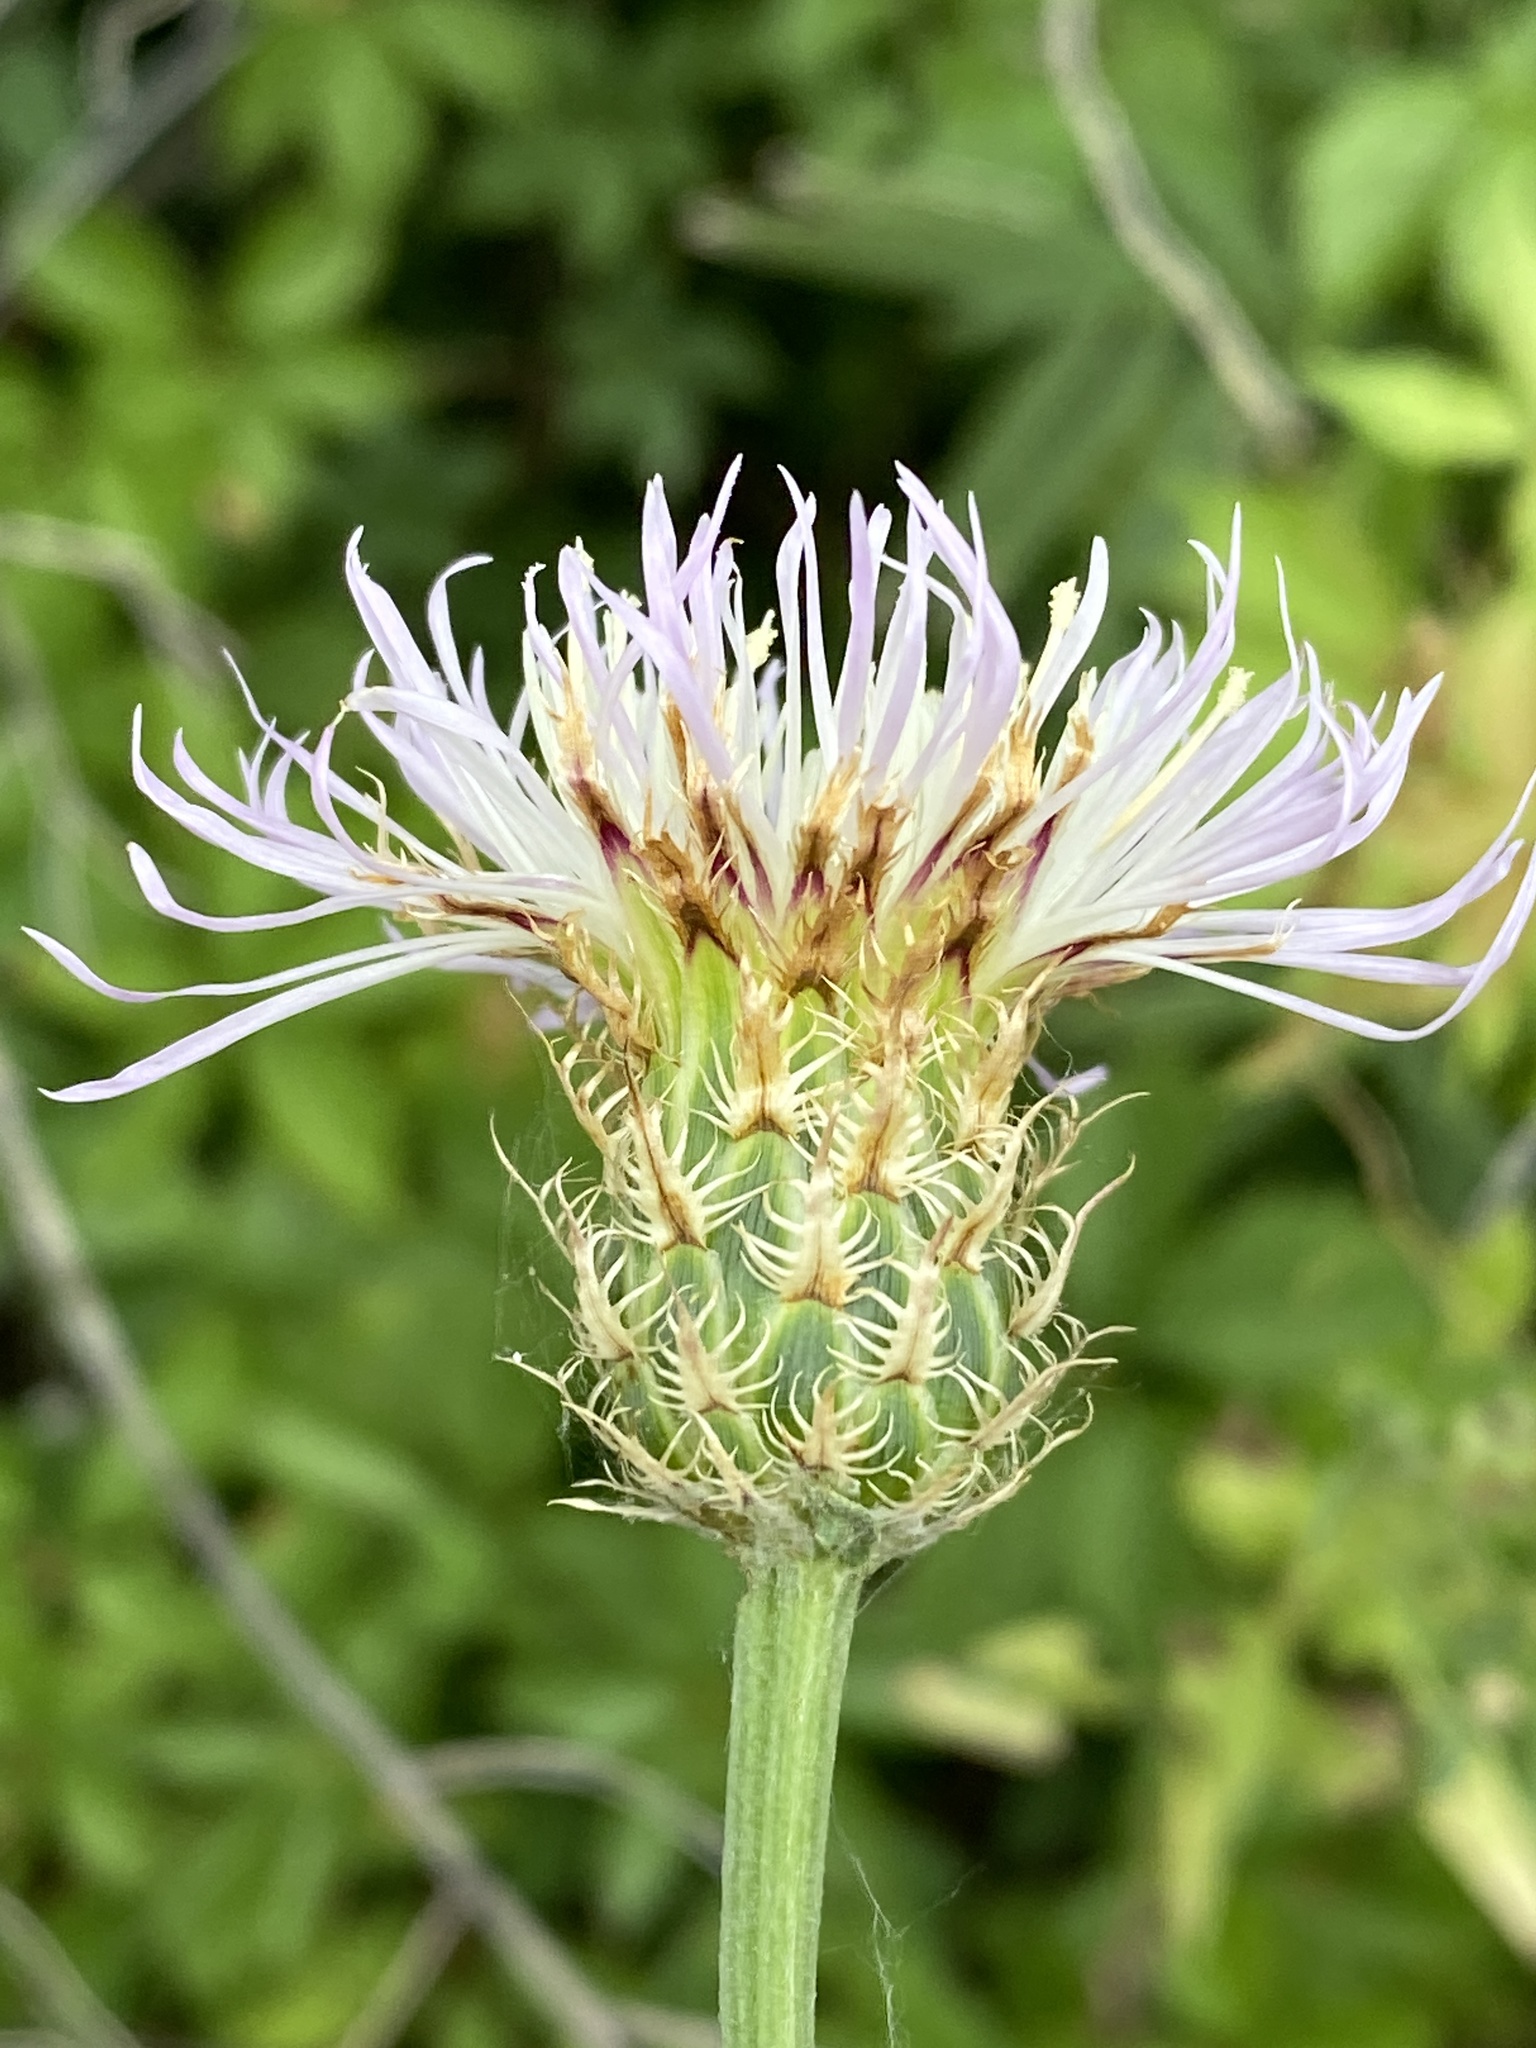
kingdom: Plantae
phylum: Tracheophyta
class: Magnoliopsida
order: Asterales
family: Asteraceae
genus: Plectocephalus
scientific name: Plectocephalus americanus
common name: American basket-flower
